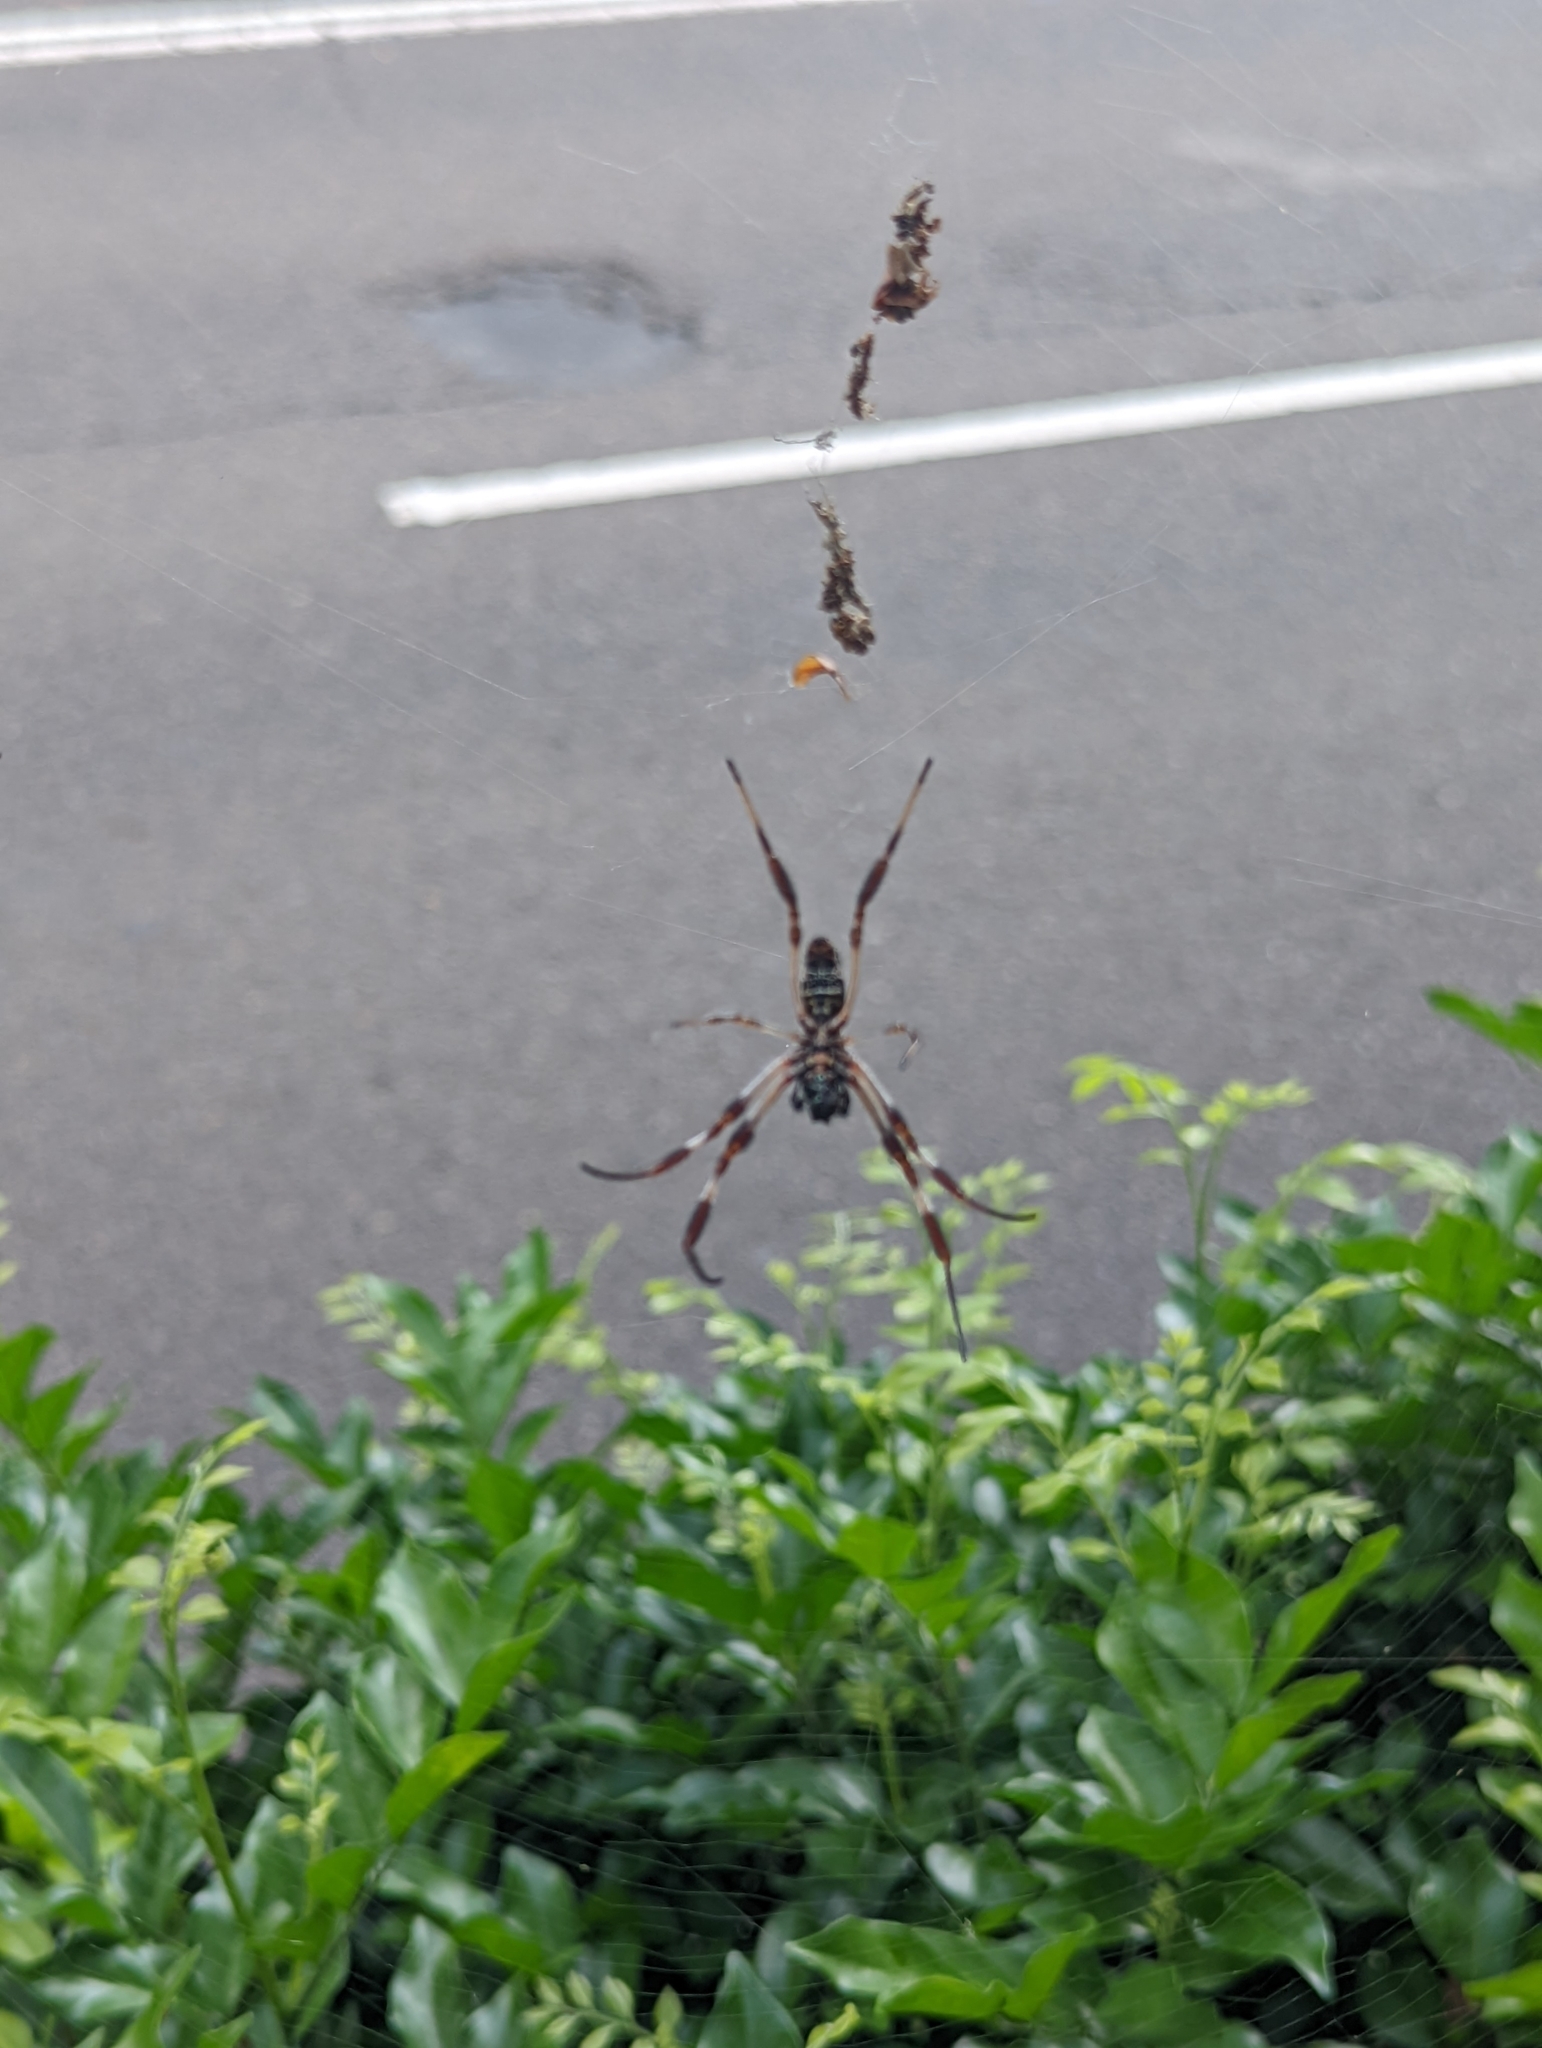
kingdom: Animalia
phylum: Arthropoda
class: Arachnida
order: Araneae
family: Araneidae
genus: Trichonephila
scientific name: Trichonephila edulis
